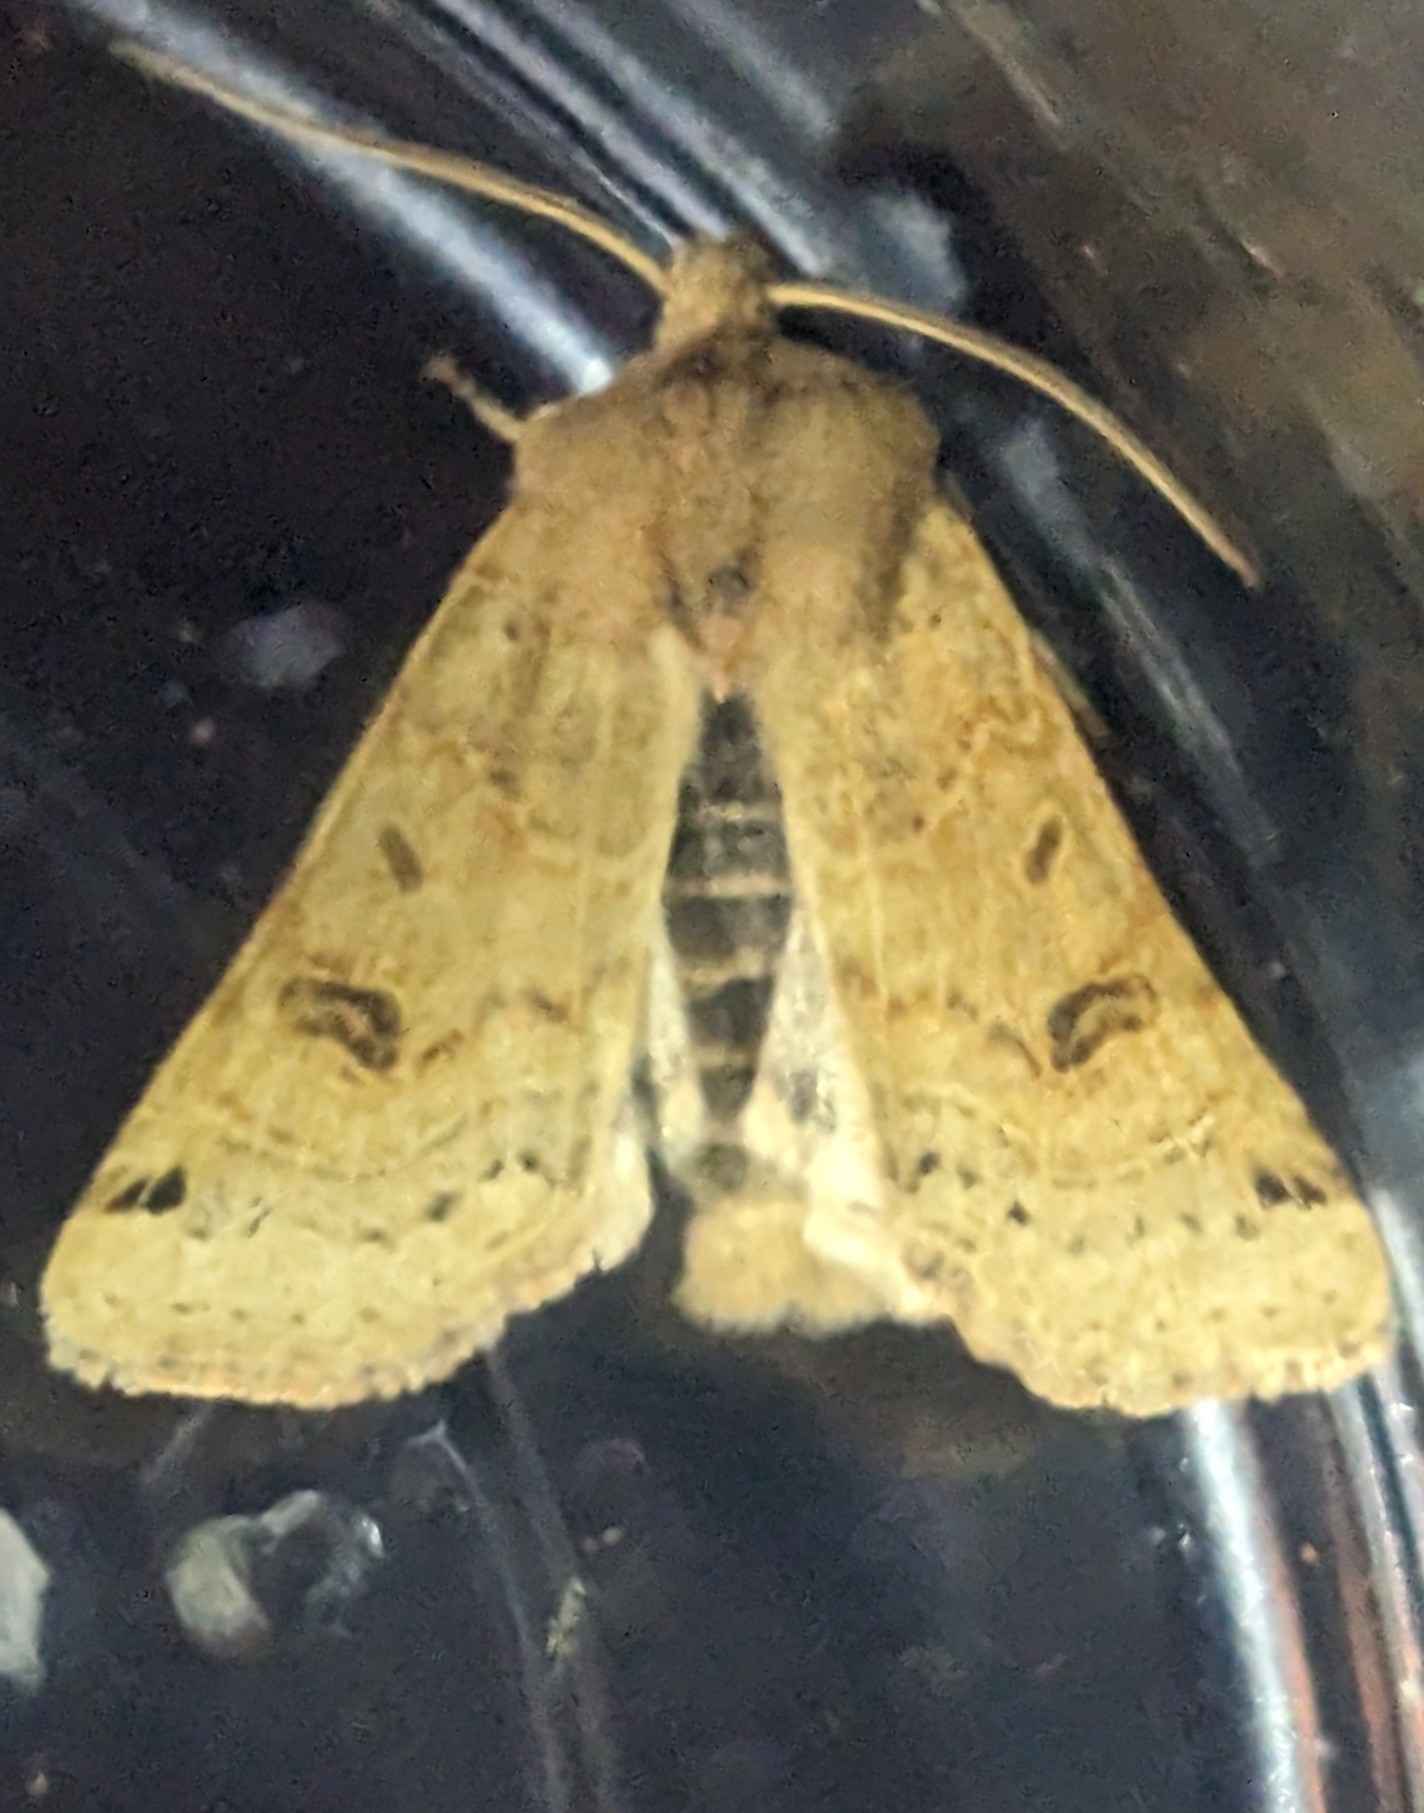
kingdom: Animalia
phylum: Arthropoda
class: Insecta
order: Lepidoptera
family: Noctuidae
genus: Agrochola
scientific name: Agrochola lunosa
